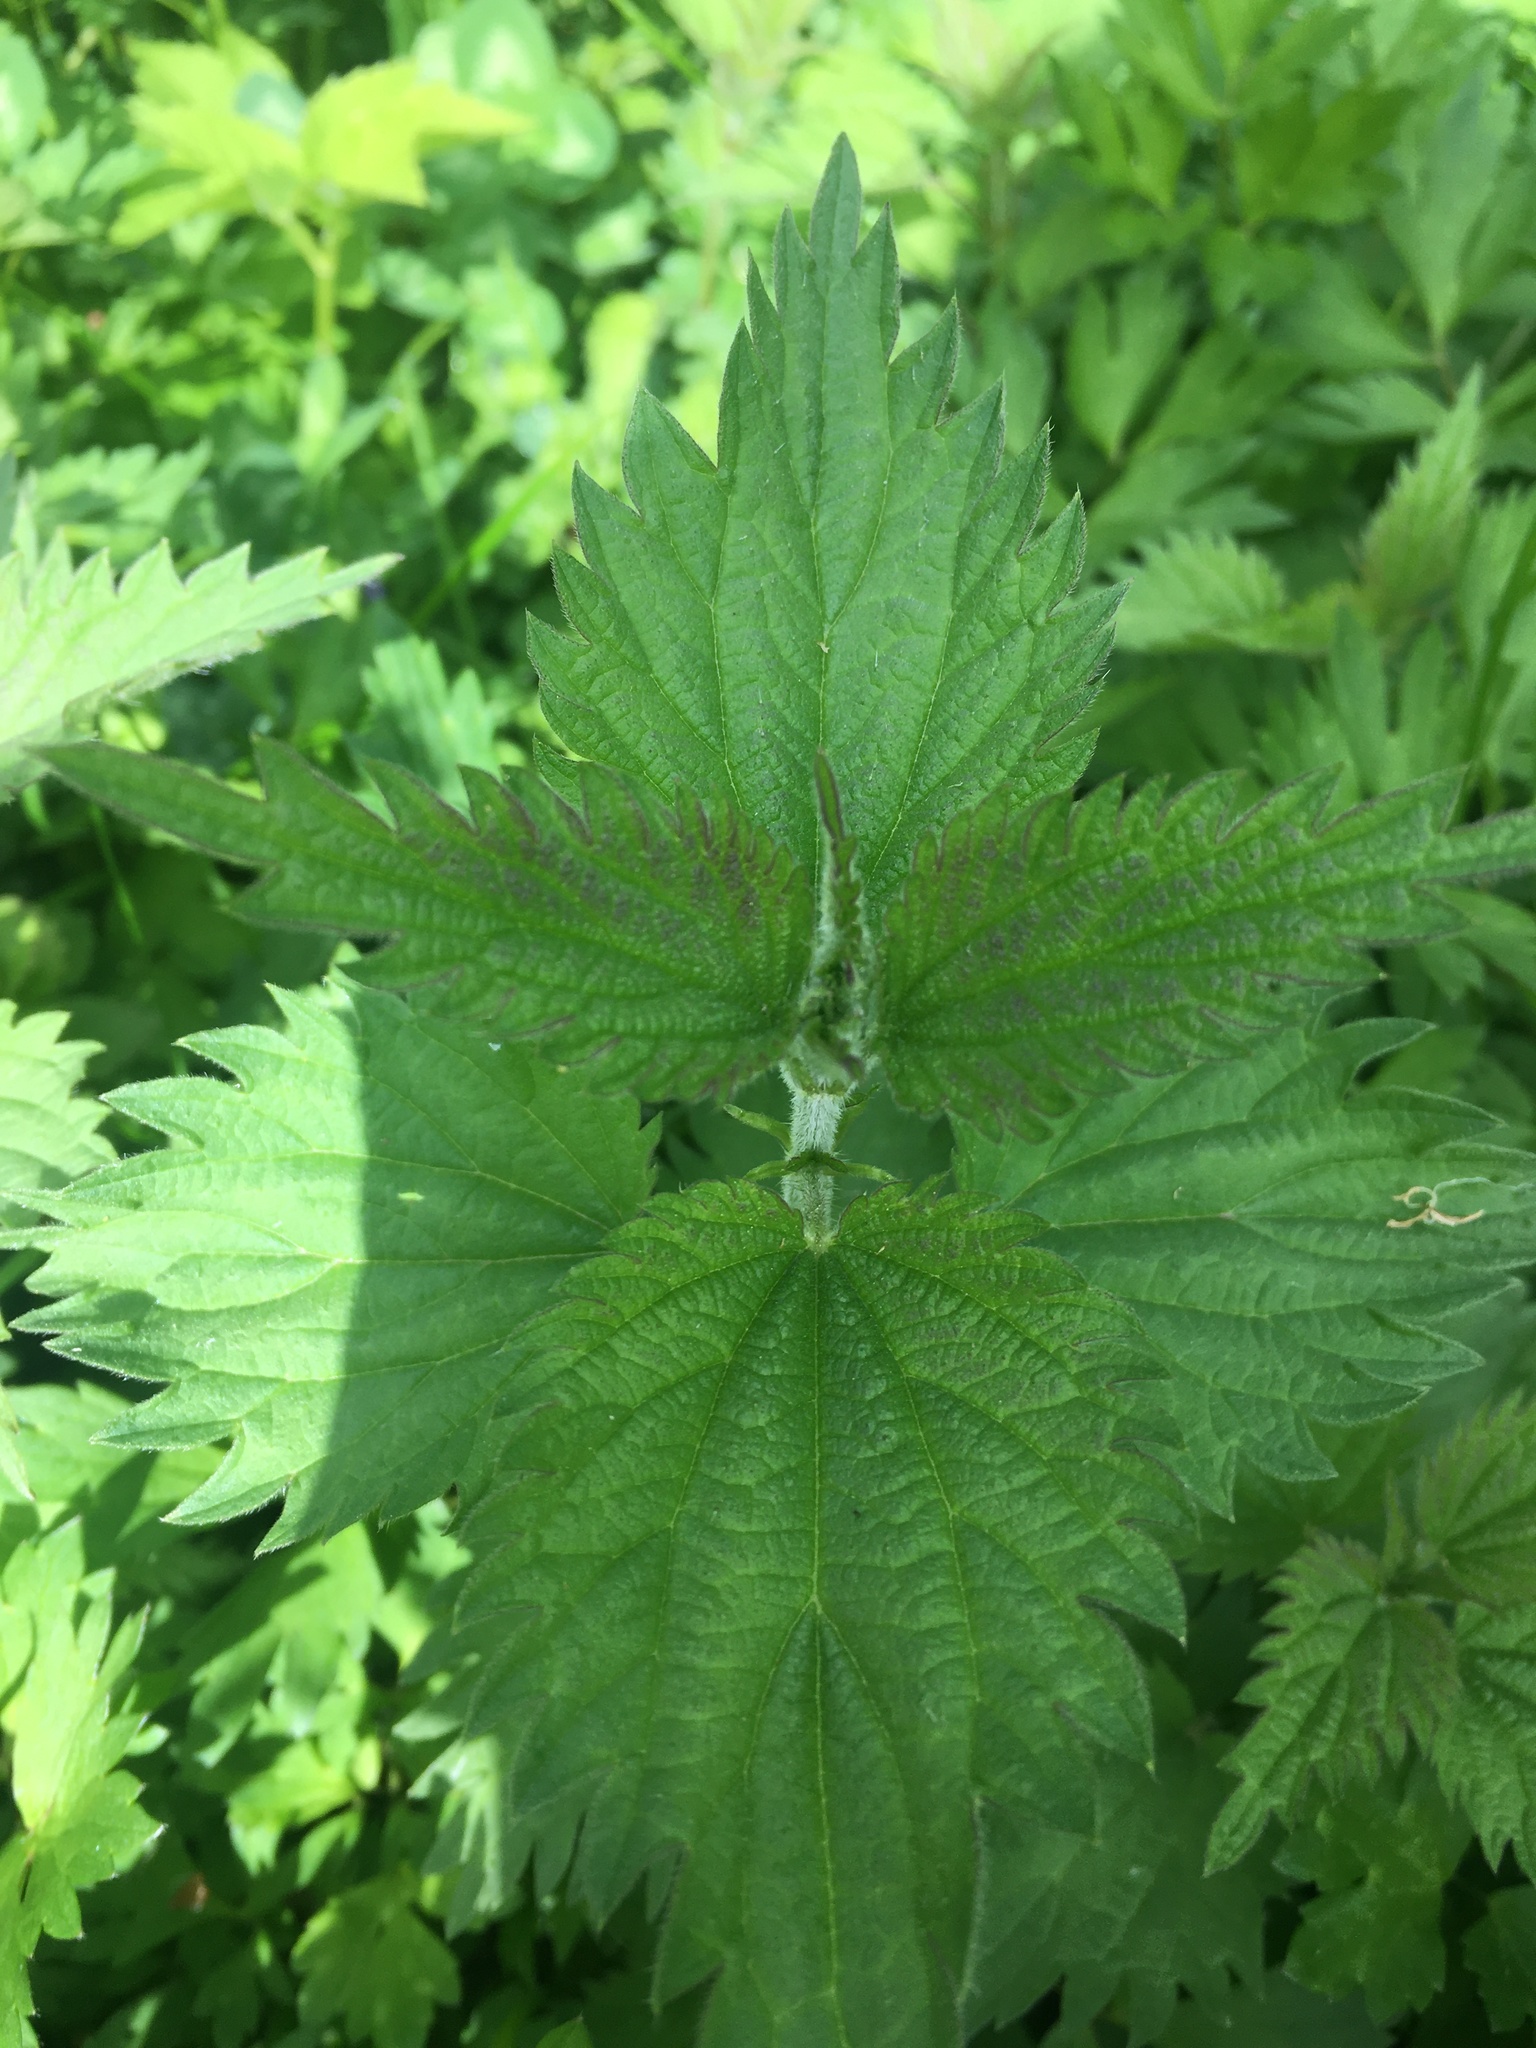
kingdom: Plantae
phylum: Tracheophyta
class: Magnoliopsida
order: Rosales
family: Urticaceae
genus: Urtica
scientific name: Urtica dioica
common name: Common nettle
